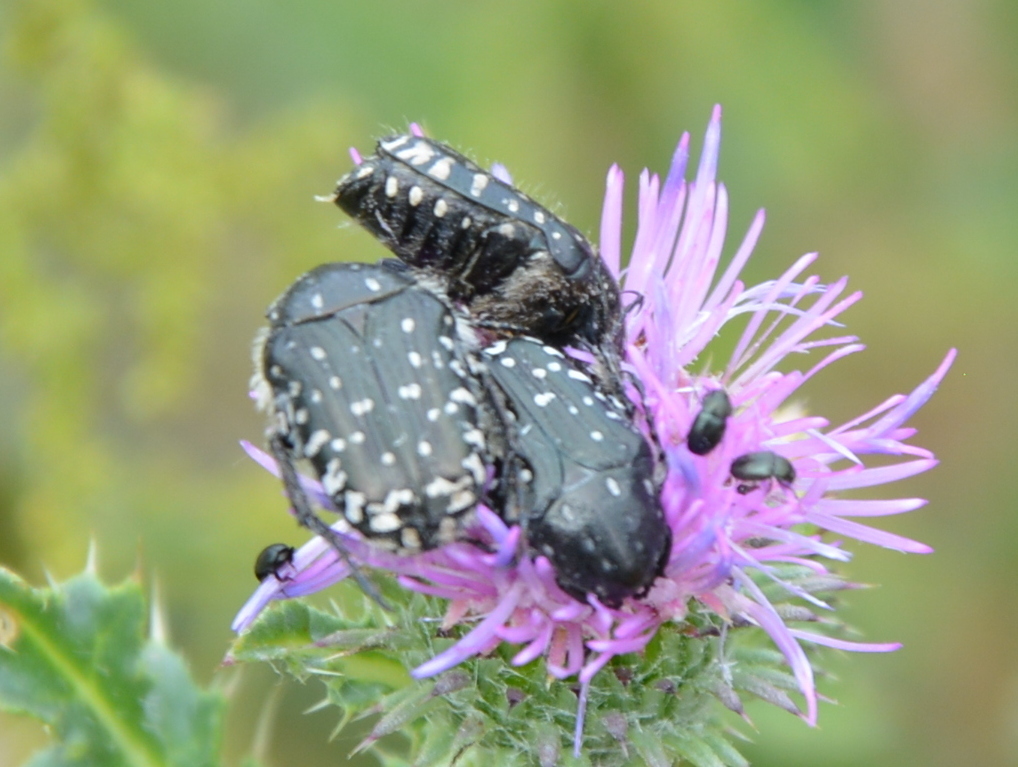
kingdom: Animalia
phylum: Arthropoda
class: Insecta
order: Coleoptera
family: Scarabaeidae
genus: Oxythyrea
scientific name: Oxythyrea funesta
